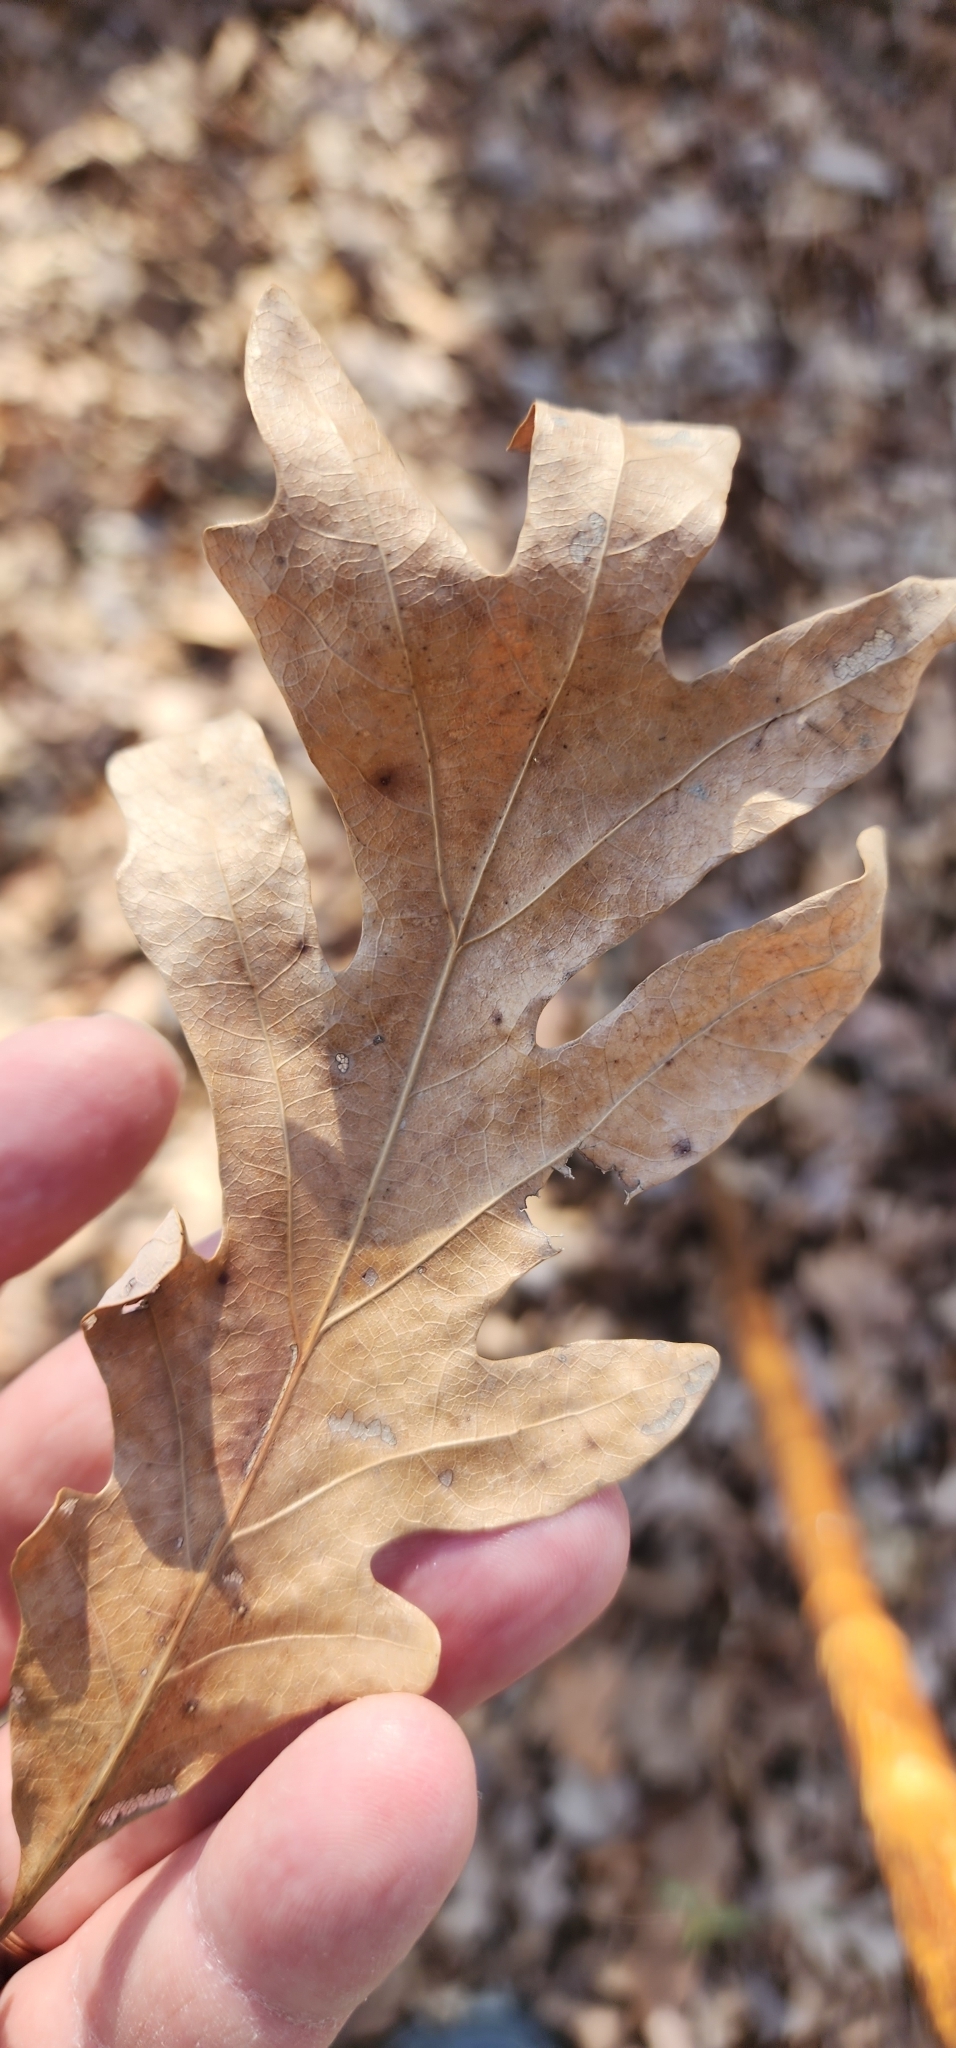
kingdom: Plantae
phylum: Tracheophyta
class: Magnoliopsida
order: Fagales
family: Fagaceae
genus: Quercus
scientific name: Quercus alba
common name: White oak
